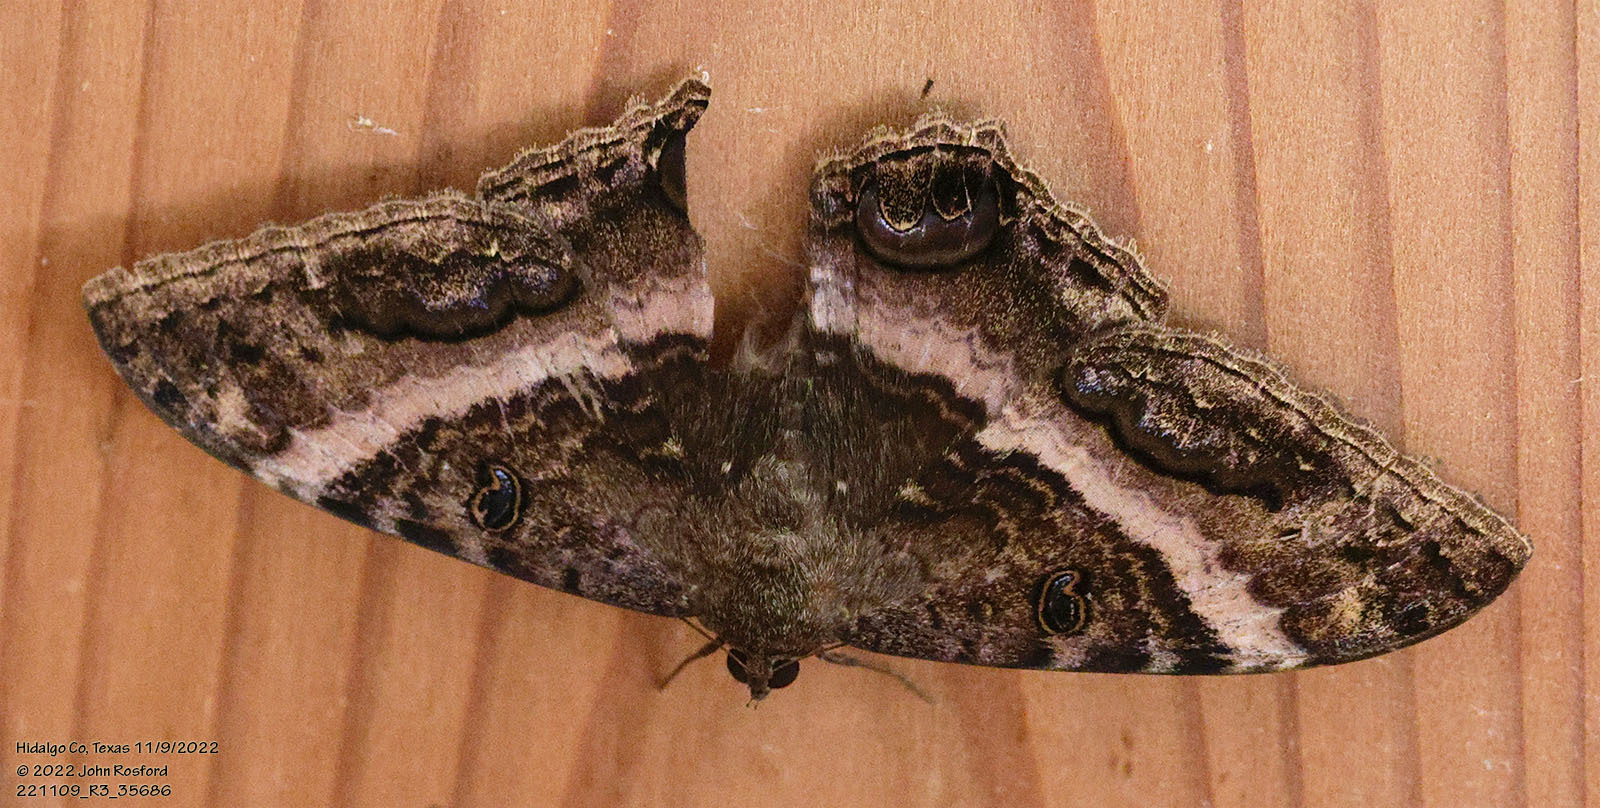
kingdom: Animalia
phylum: Arthropoda
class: Insecta
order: Lepidoptera
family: Erebidae
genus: Ascalapha
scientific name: Ascalapha odorata
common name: Black witch
